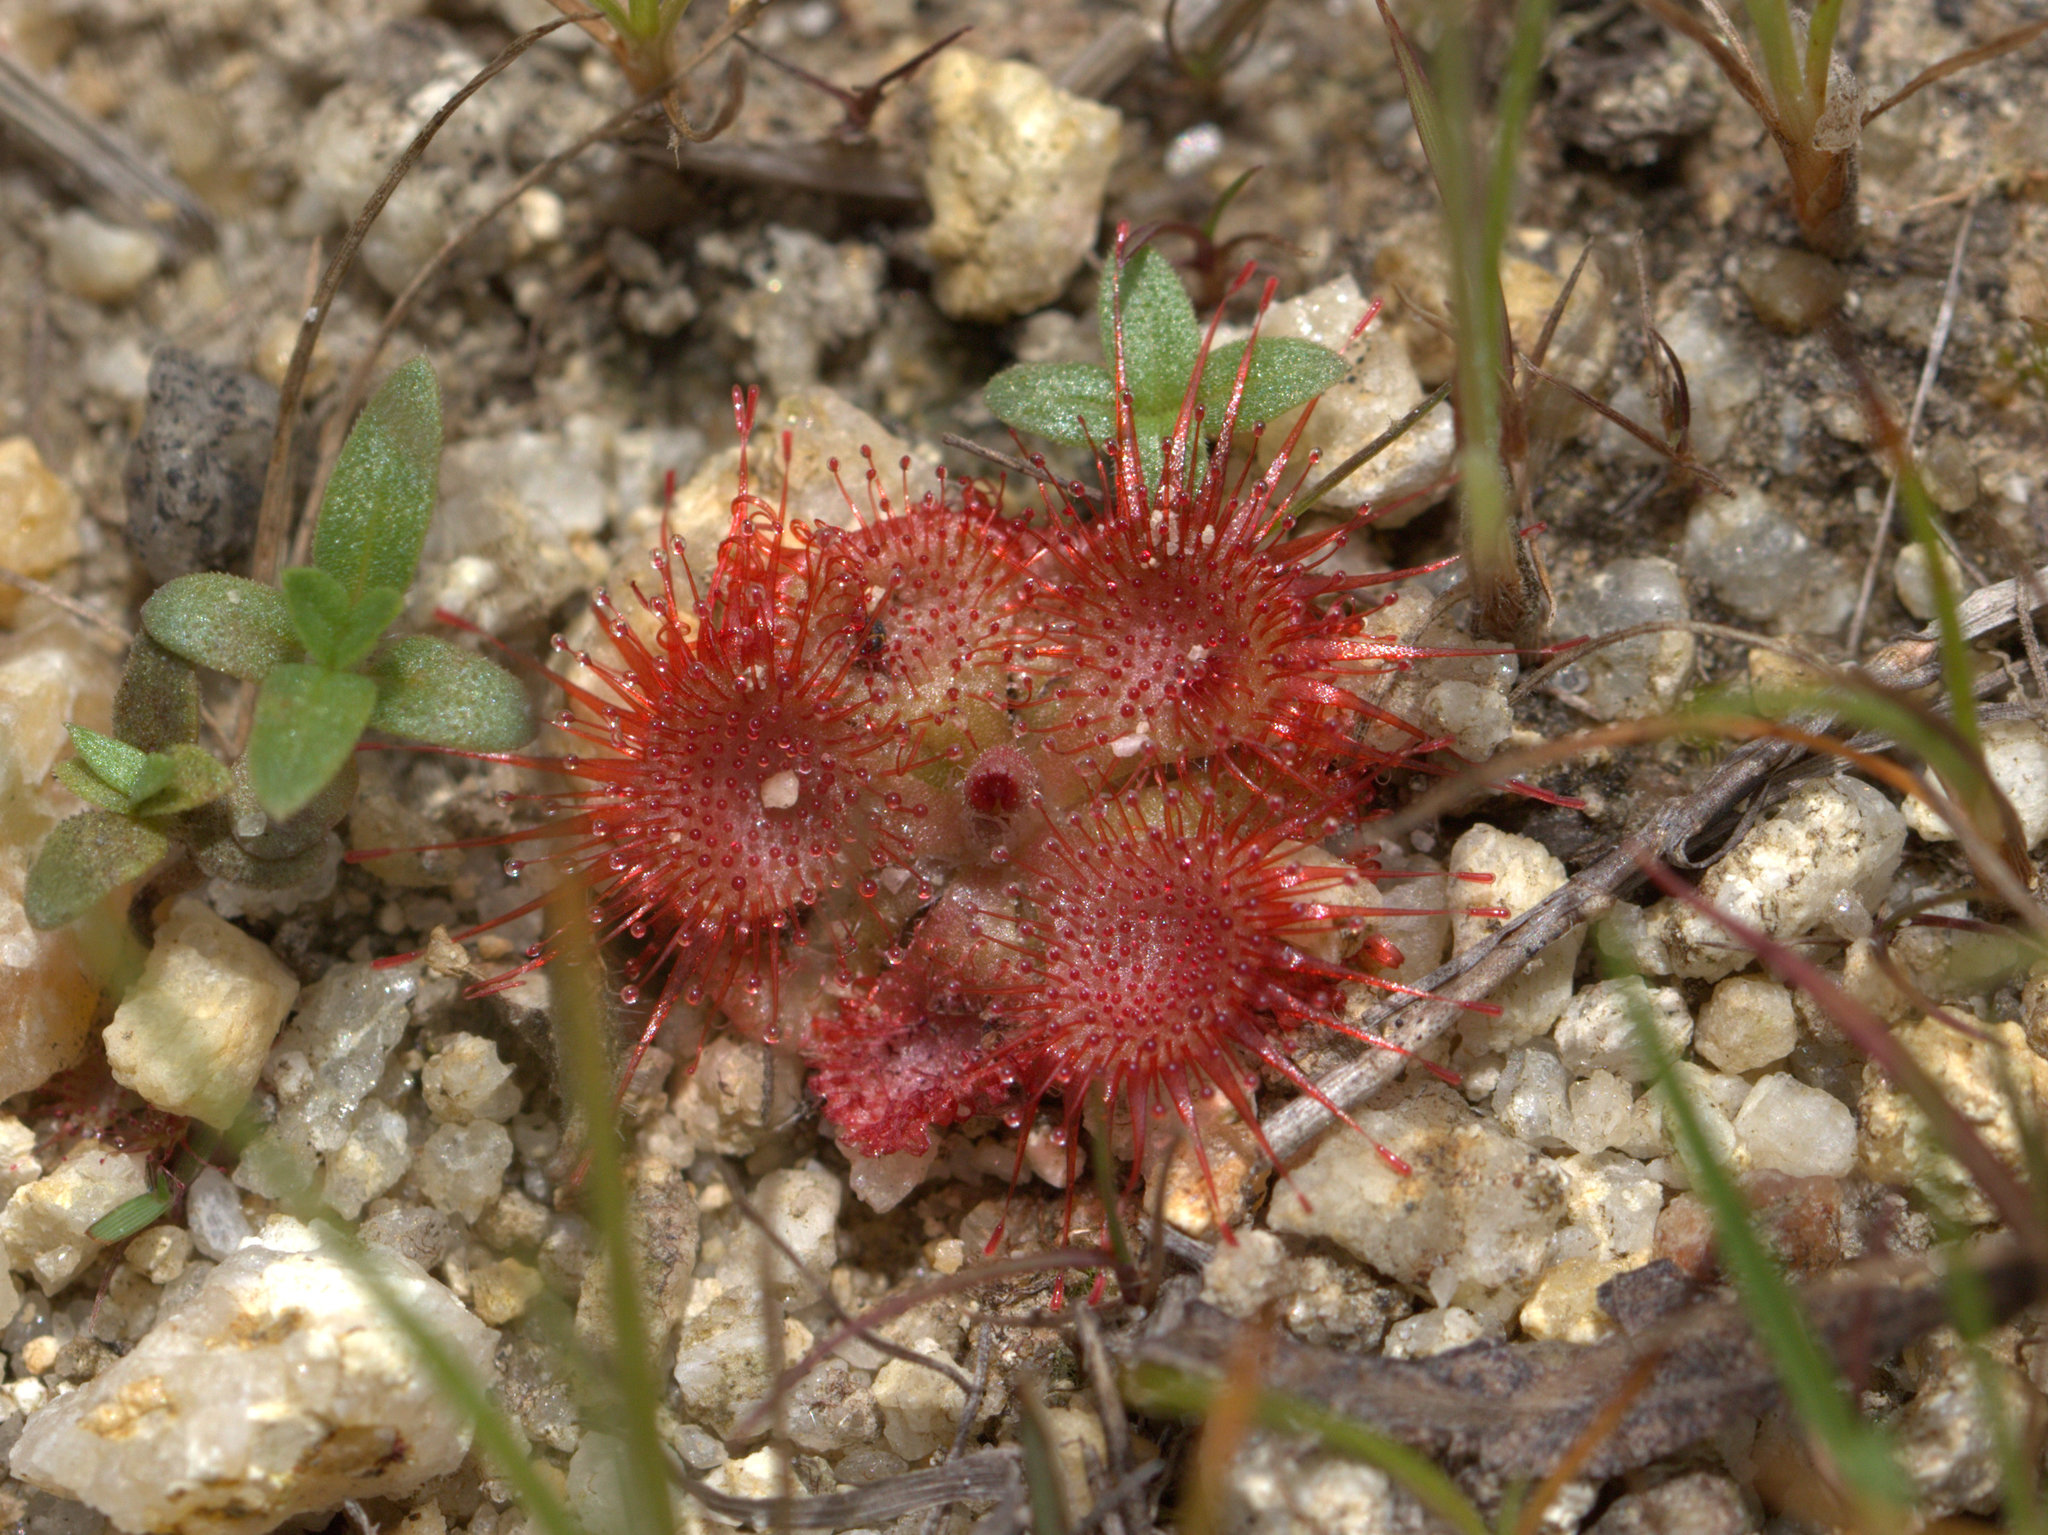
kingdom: Plantae
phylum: Tracheophyta
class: Magnoliopsida
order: Caryophyllales
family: Droseraceae
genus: Drosera
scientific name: Drosera spatulata
